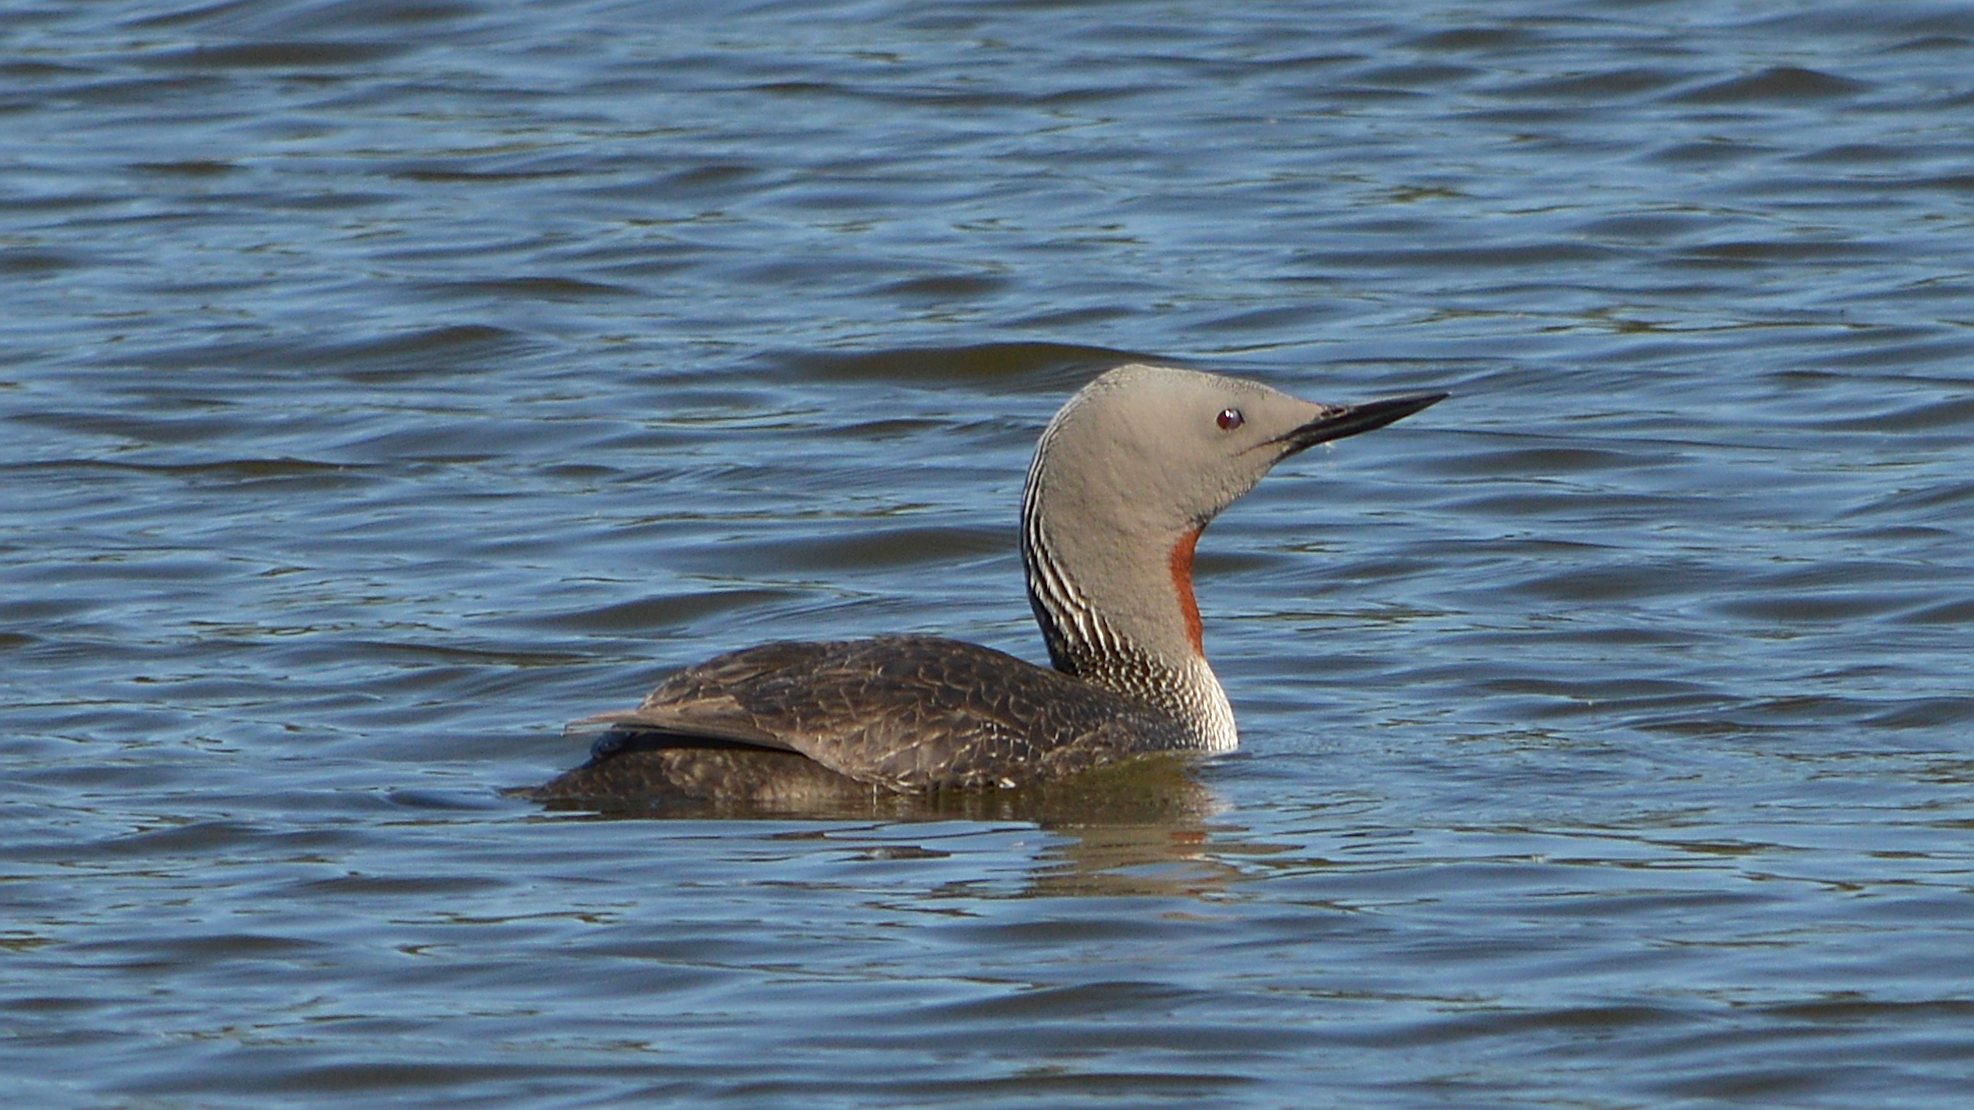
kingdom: Animalia
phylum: Chordata
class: Aves
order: Gaviiformes
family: Gaviidae
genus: Gavia
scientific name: Gavia stellata
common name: Red-throated loon
